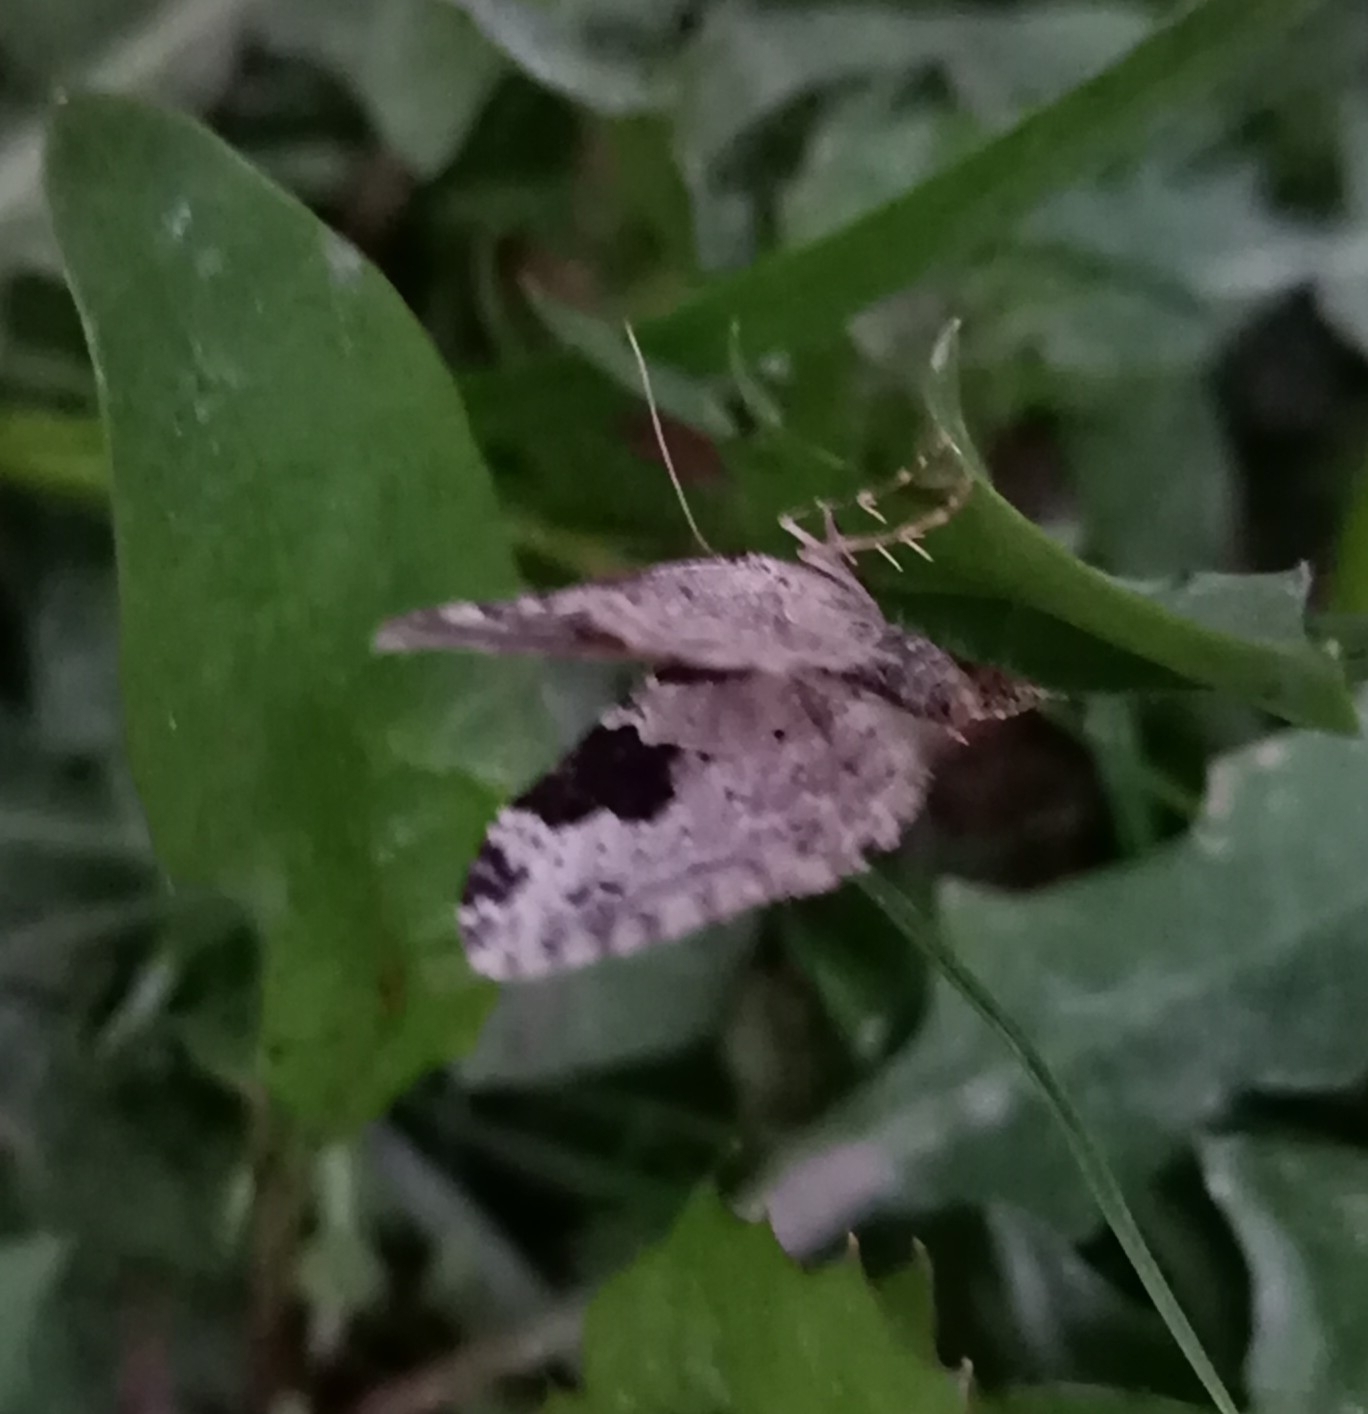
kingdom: Animalia
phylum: Arthropoda
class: Insecta
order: Lepidoptera
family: Geometridae
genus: Xanthorhoe
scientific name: Xanthorhoe fluctuata
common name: Garden carpet
